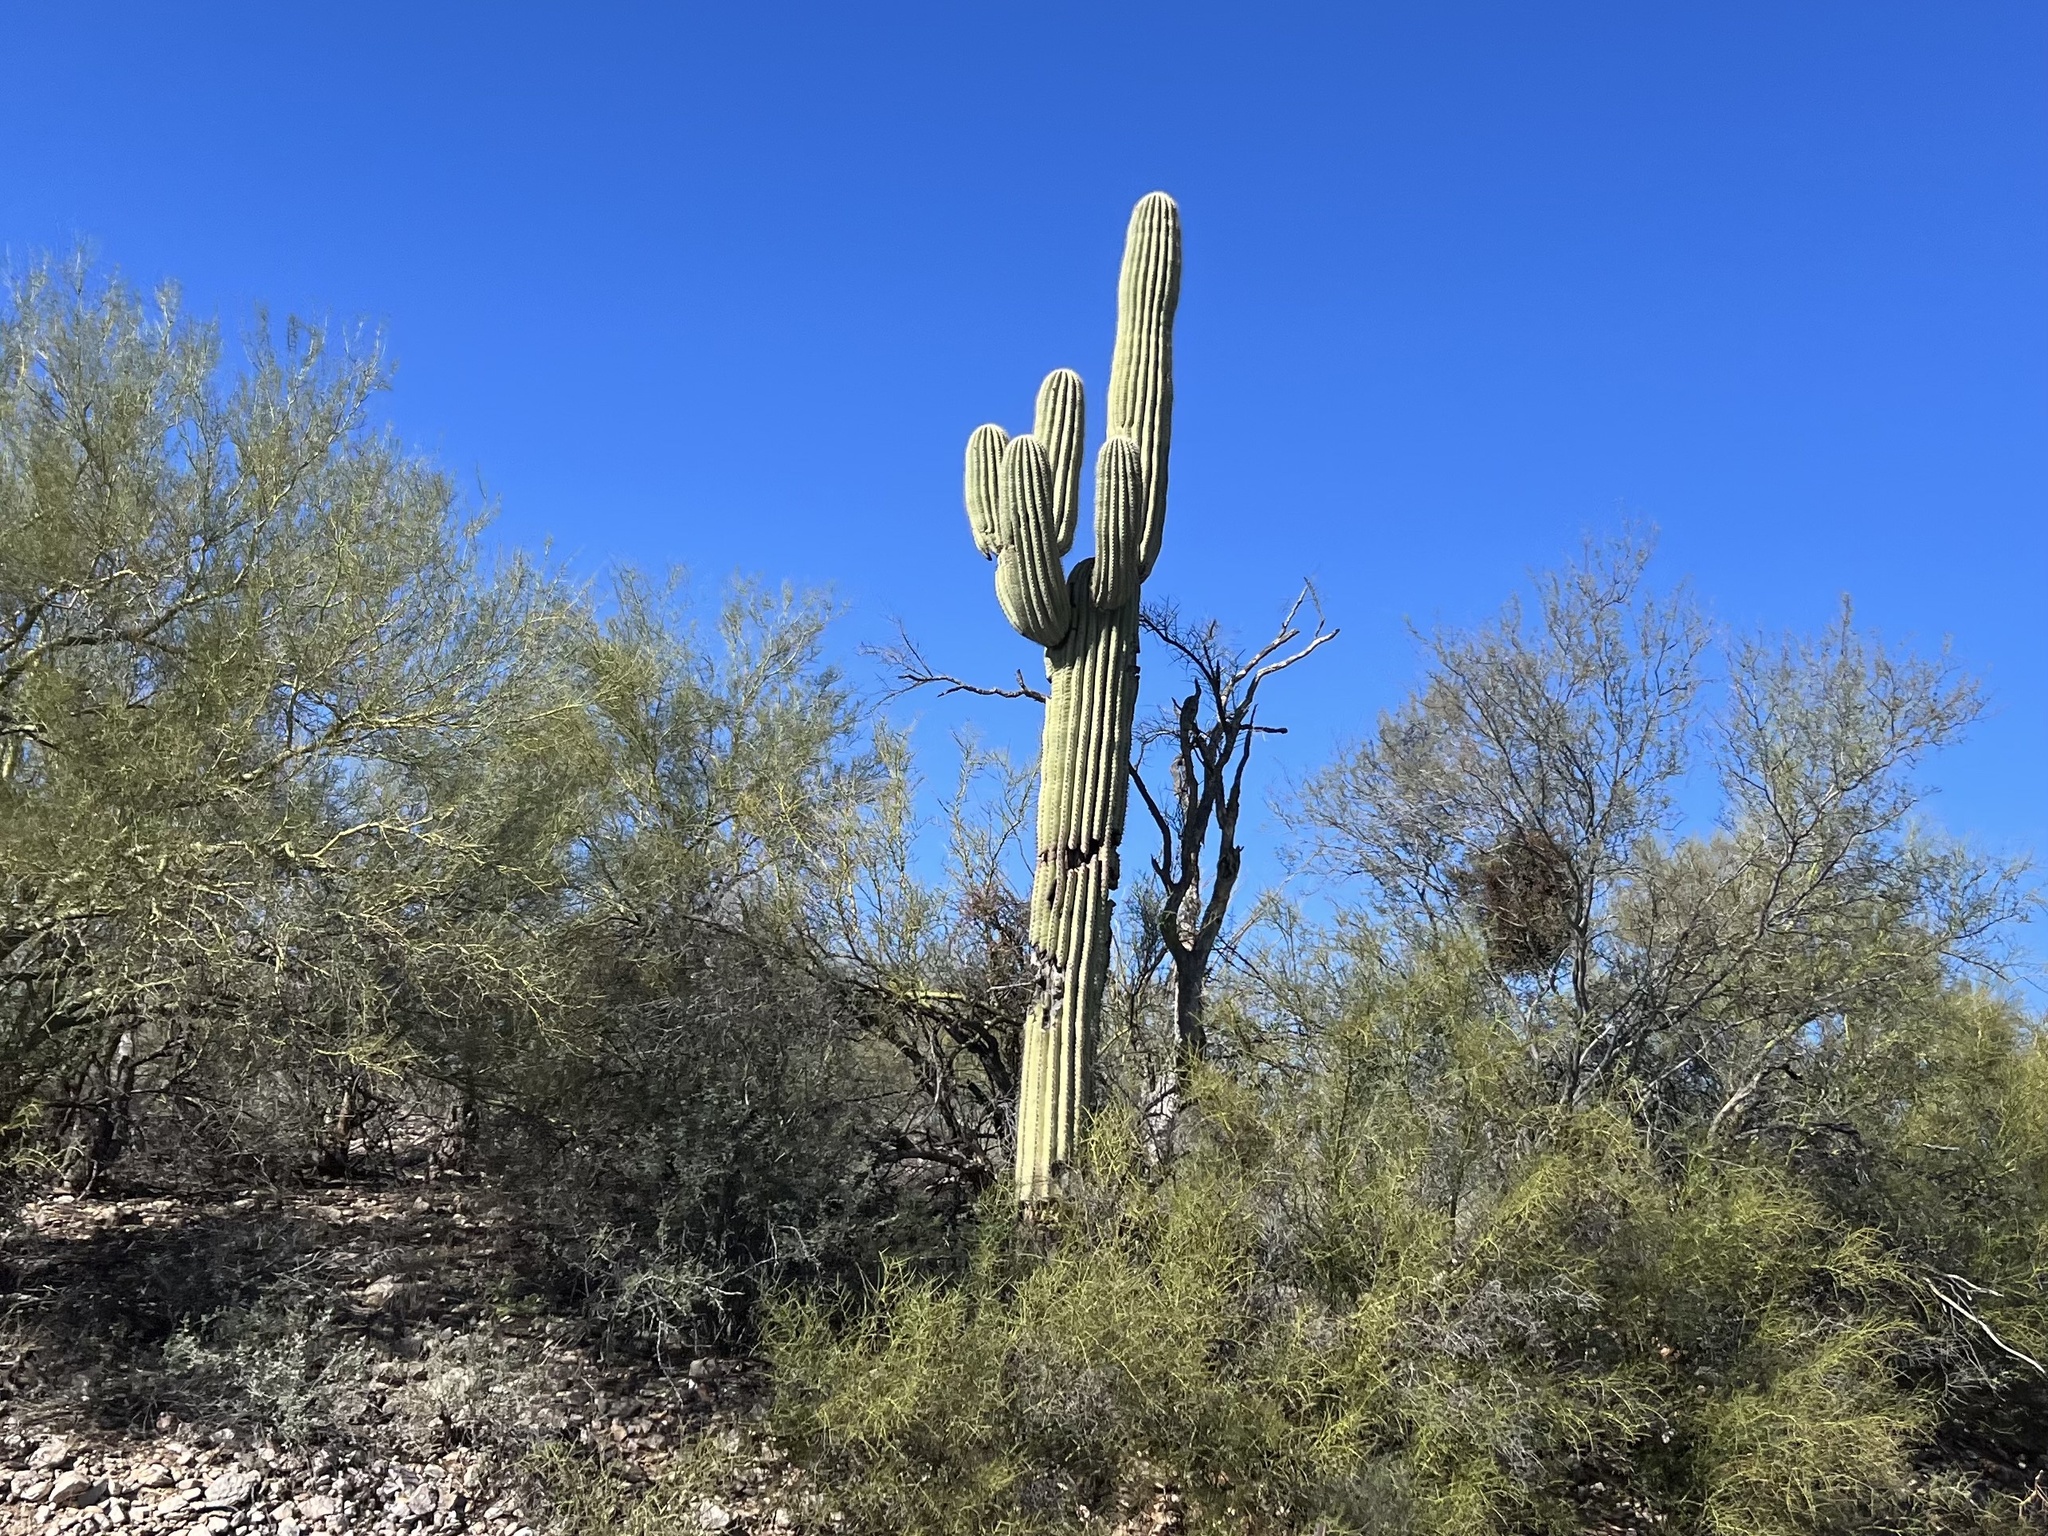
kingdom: Plantae
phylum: Tracheophyta
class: Magnoliopsida
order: Caryophyllales
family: Cactaceae
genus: Carnegiea
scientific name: Carnegiea gigantea
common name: Saguaro
